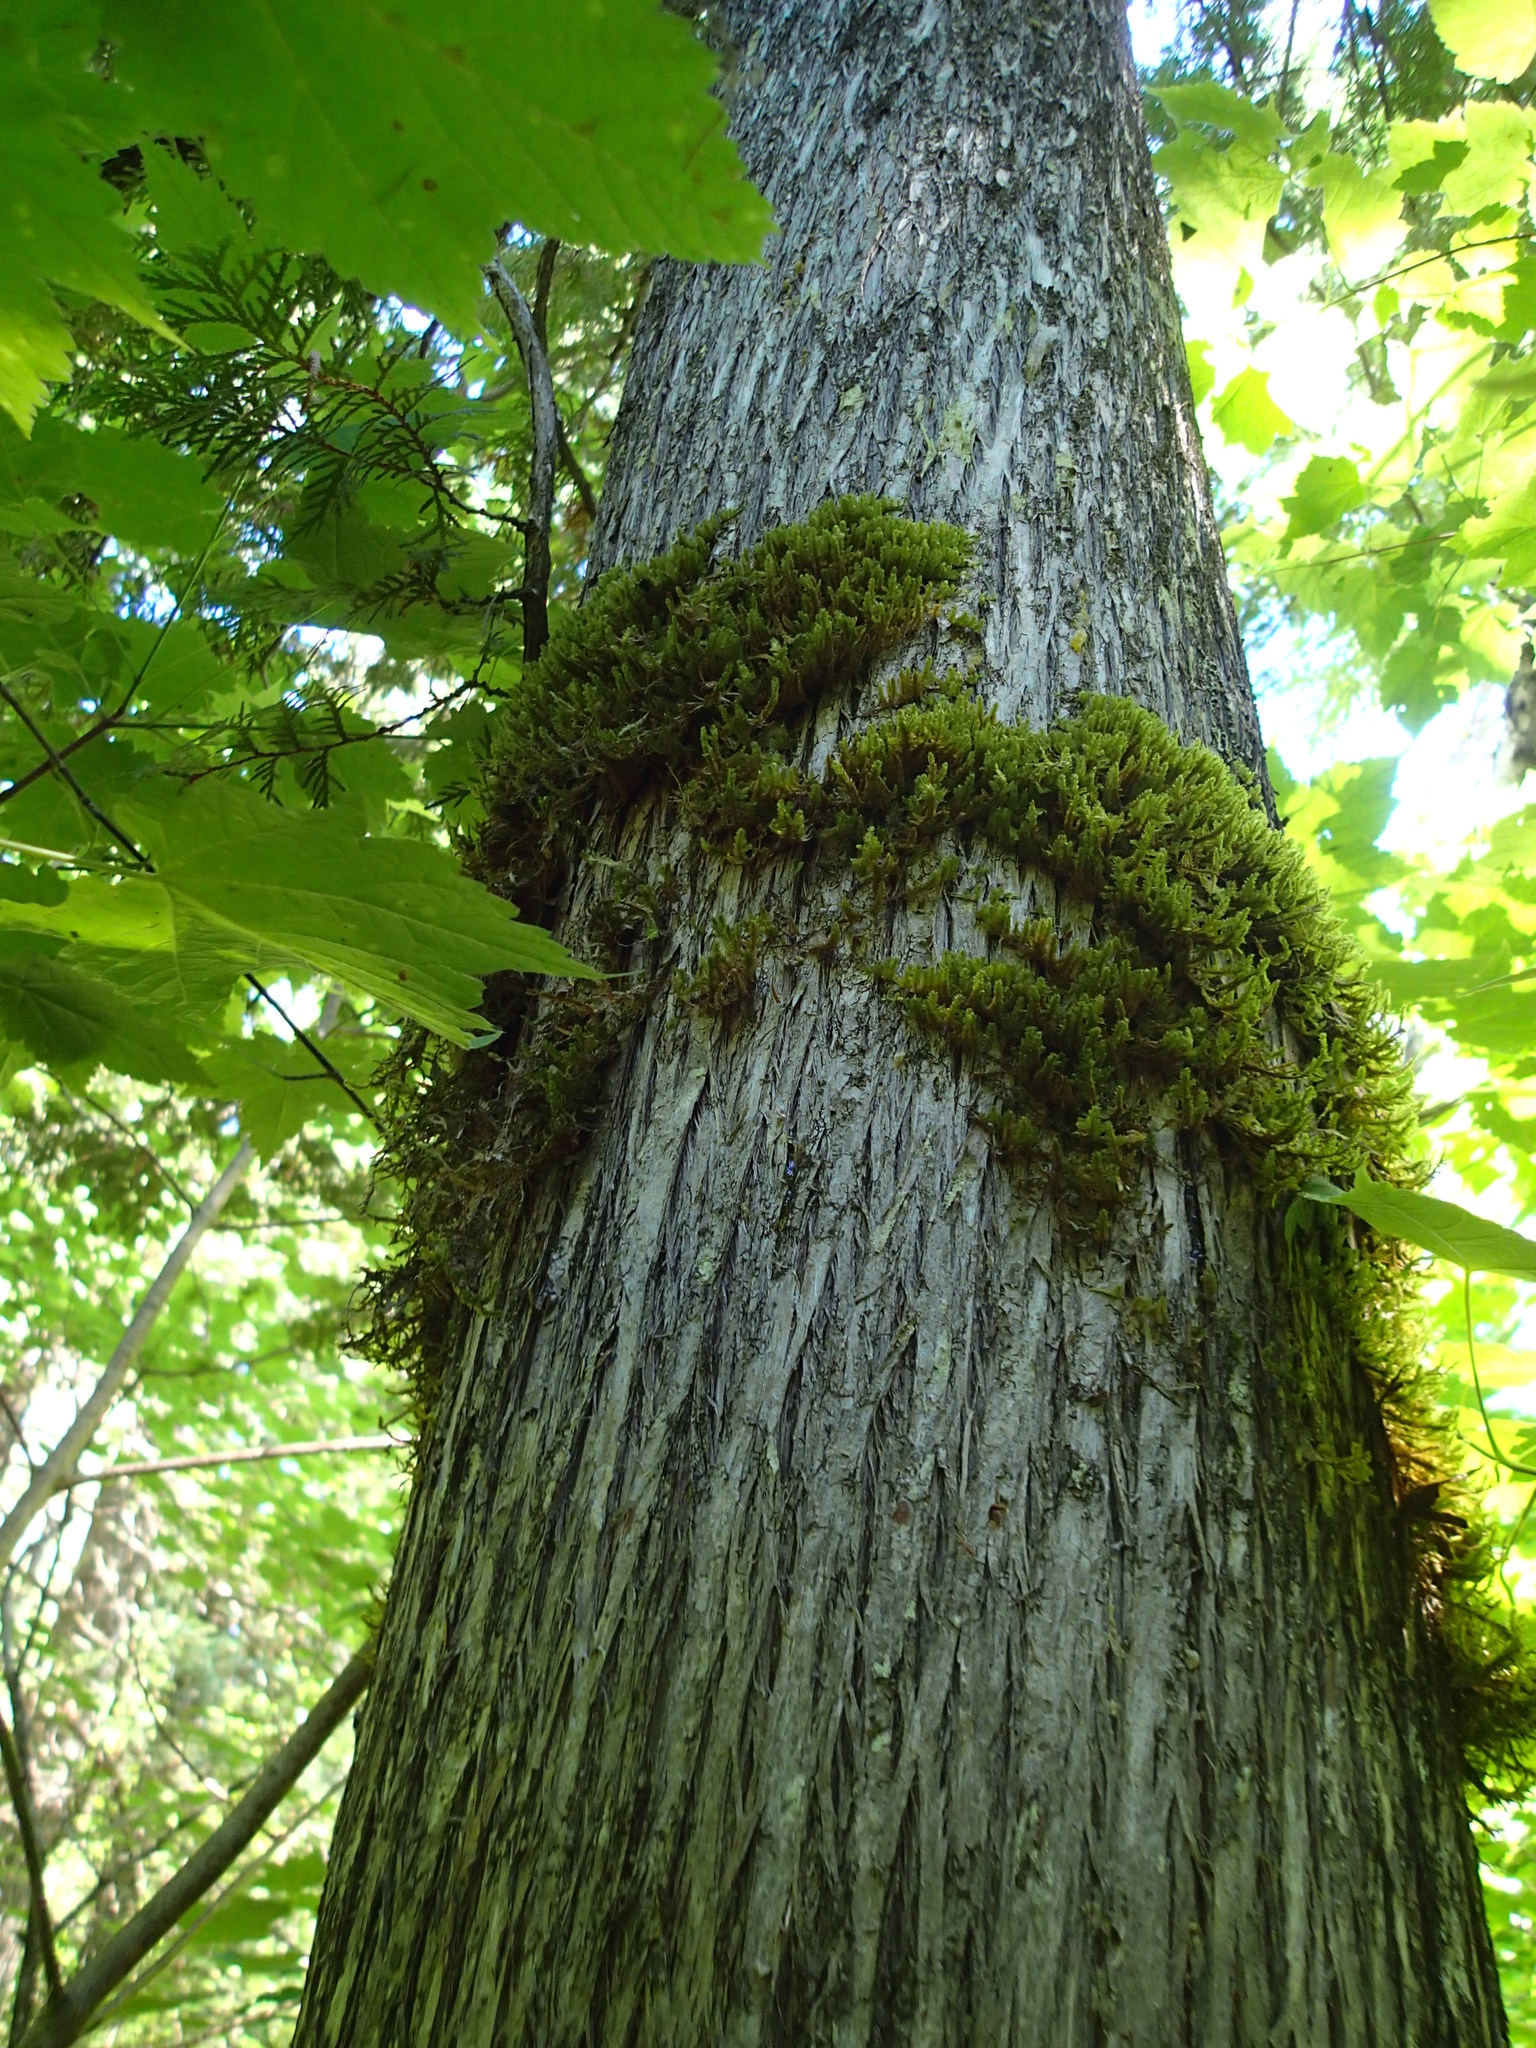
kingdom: Plantae
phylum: Bryophyta
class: Bryopsida
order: Hypnales
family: Neckeraceae
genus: Neckera
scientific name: Neckera pennata
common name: Feathery neckera
